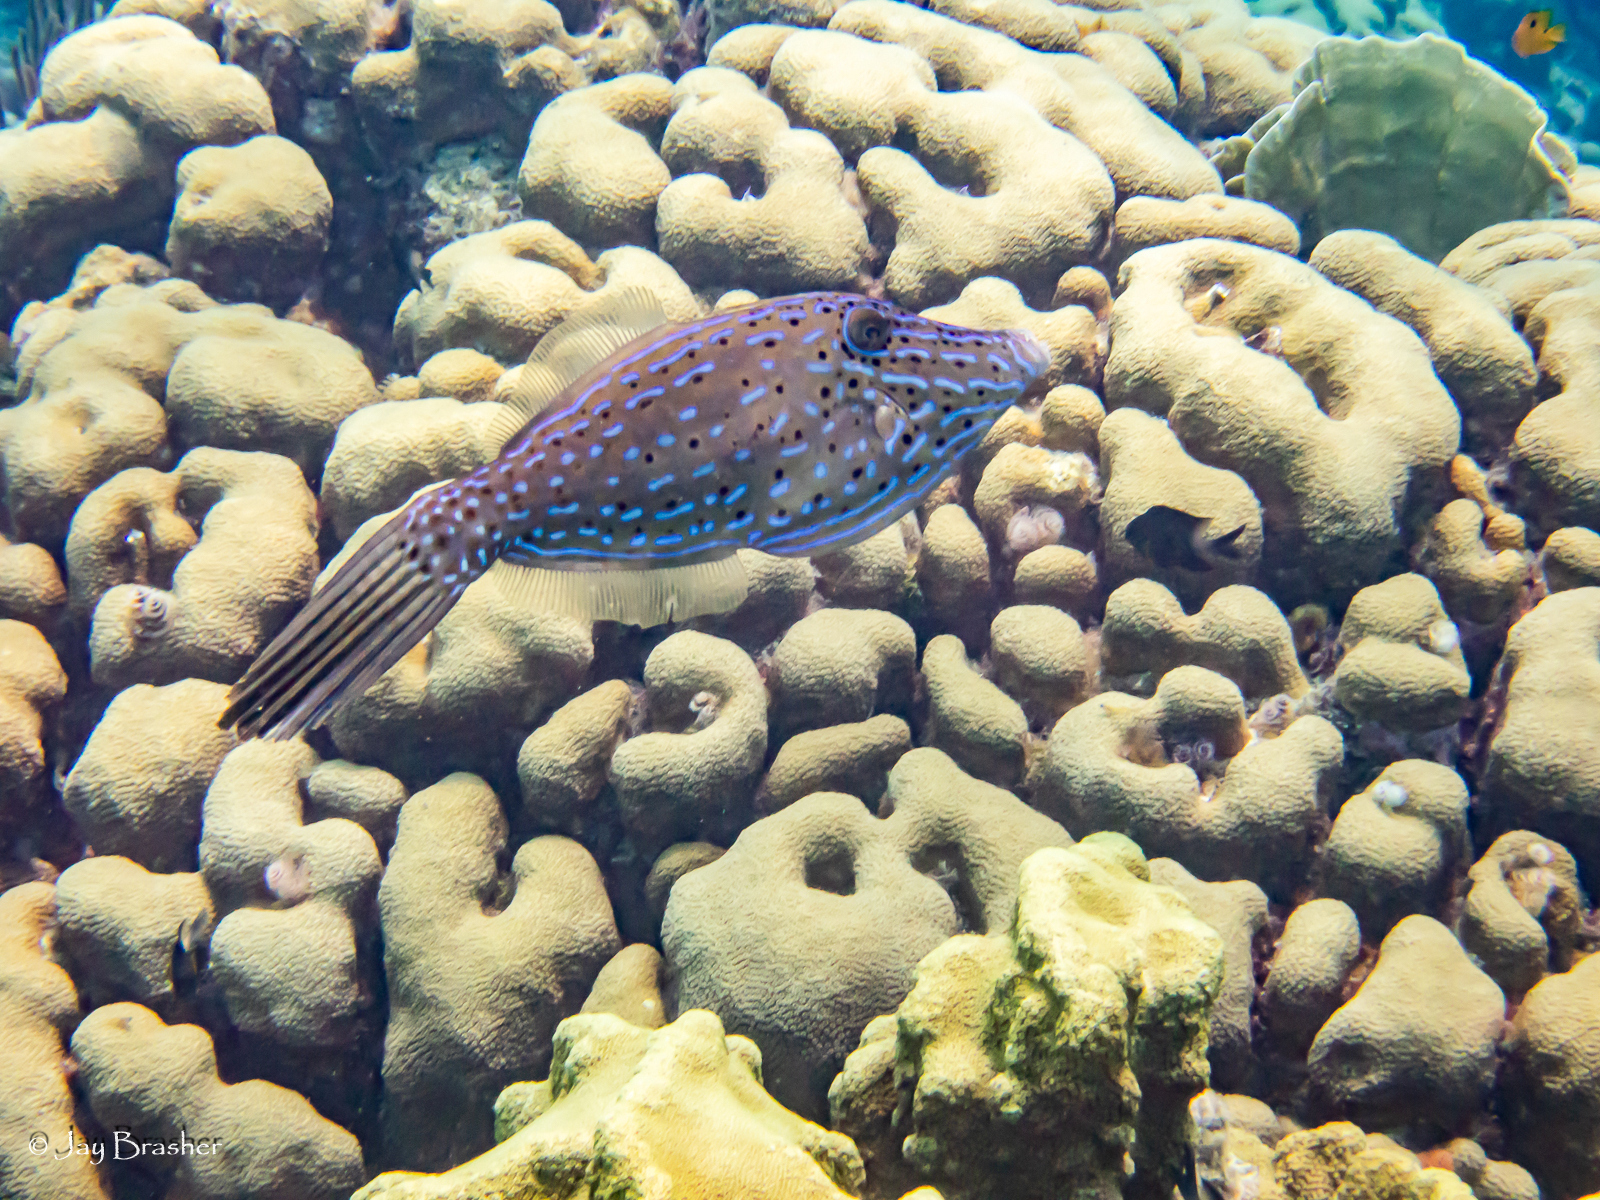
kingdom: Animalia
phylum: Cnidaria
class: Anthozoa
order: Scleractinia
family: Merulinidae
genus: Orbicella
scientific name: Orbicella annularis
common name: Boulder star coral
